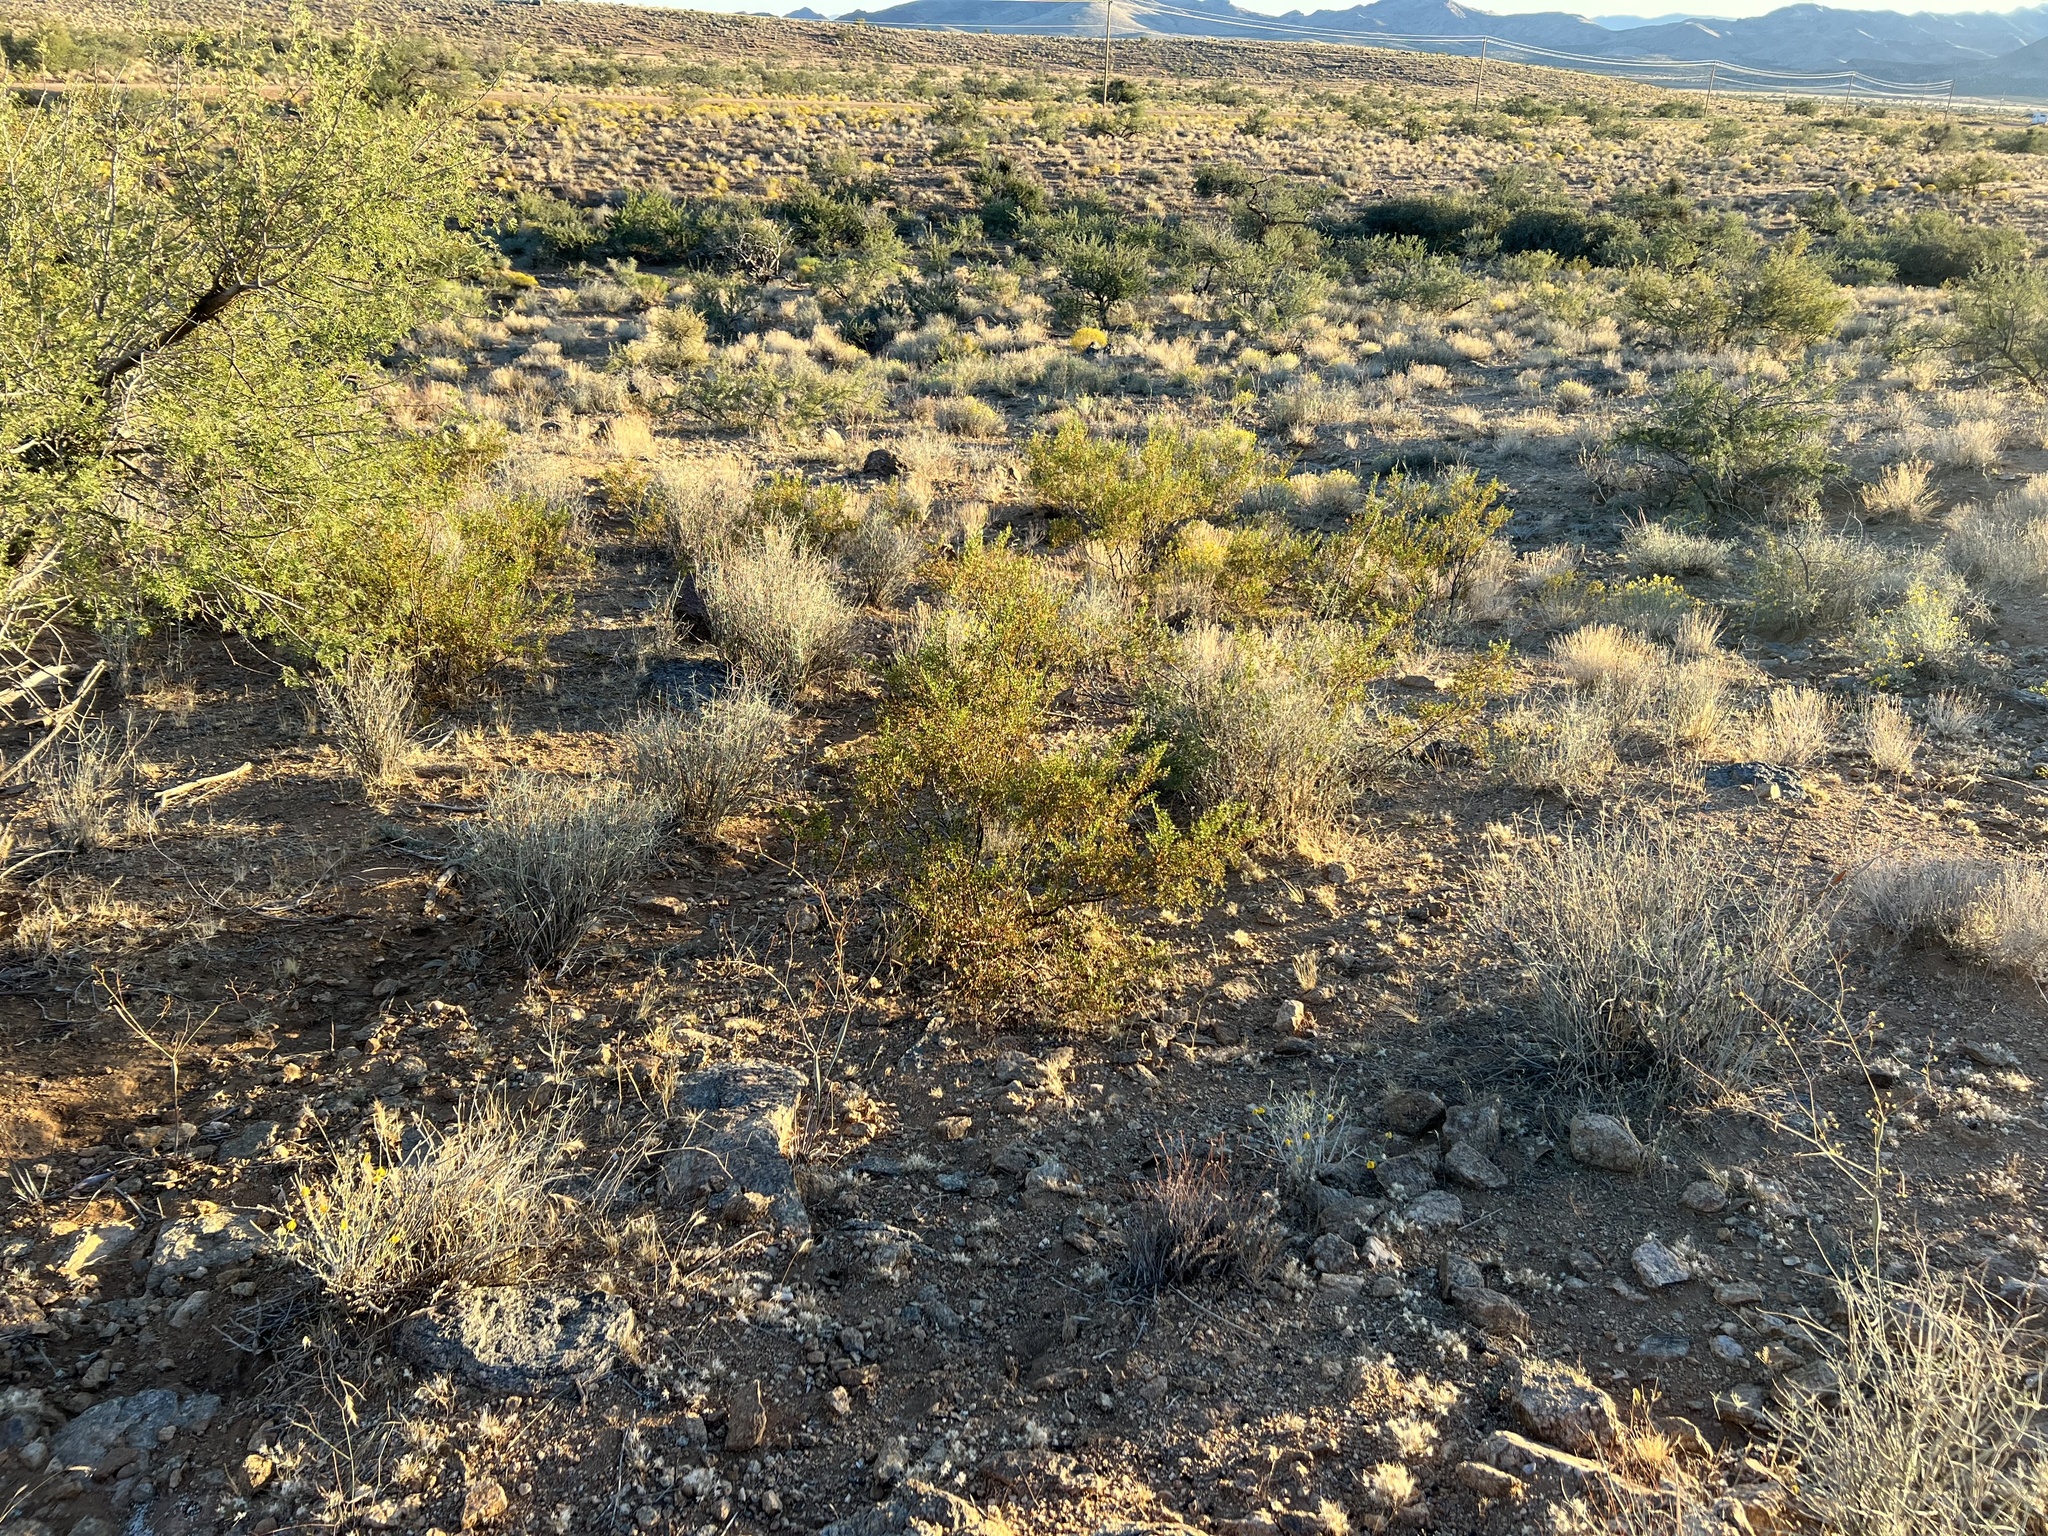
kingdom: Plantae
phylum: Tracheophyta
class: Magnoliopsida
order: Zygophyllales
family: Zygophyllaceae
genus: Larrea
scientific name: Larrea tridentata
